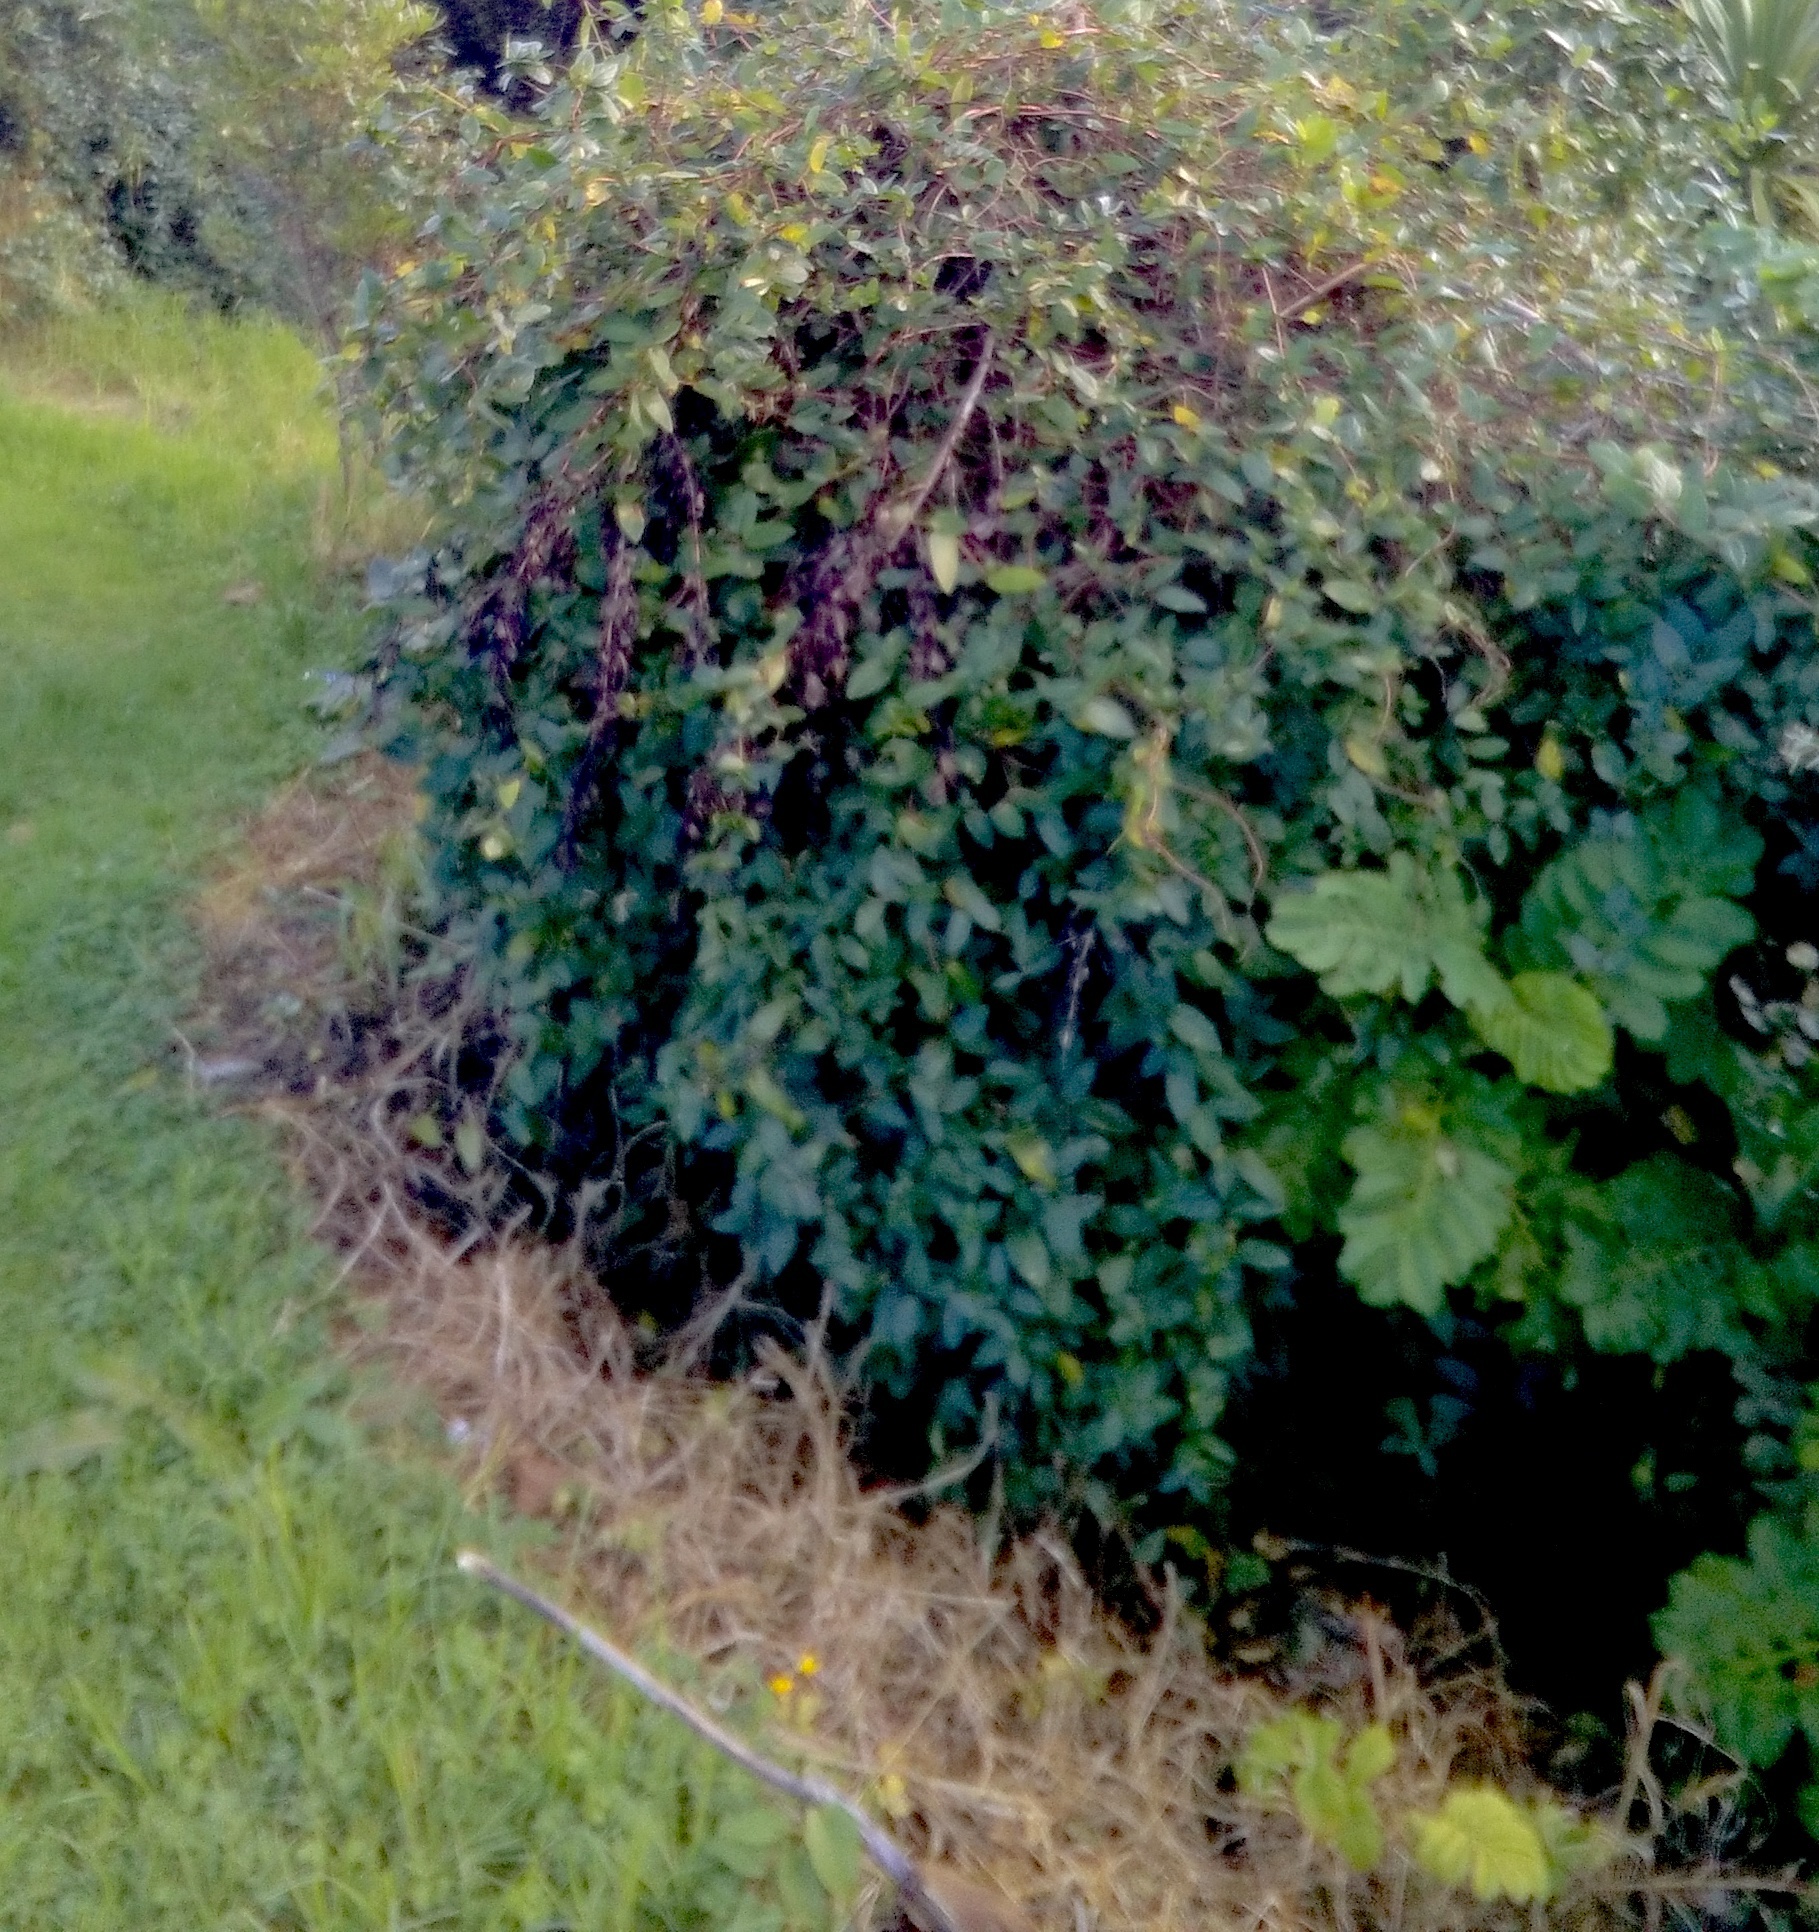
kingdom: Plantae
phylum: Tracheophyta
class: Liliopsida
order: Poales
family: Poaceae
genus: Cenchrus
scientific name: Cenchrus clandestinus
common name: Kikuyugrass
